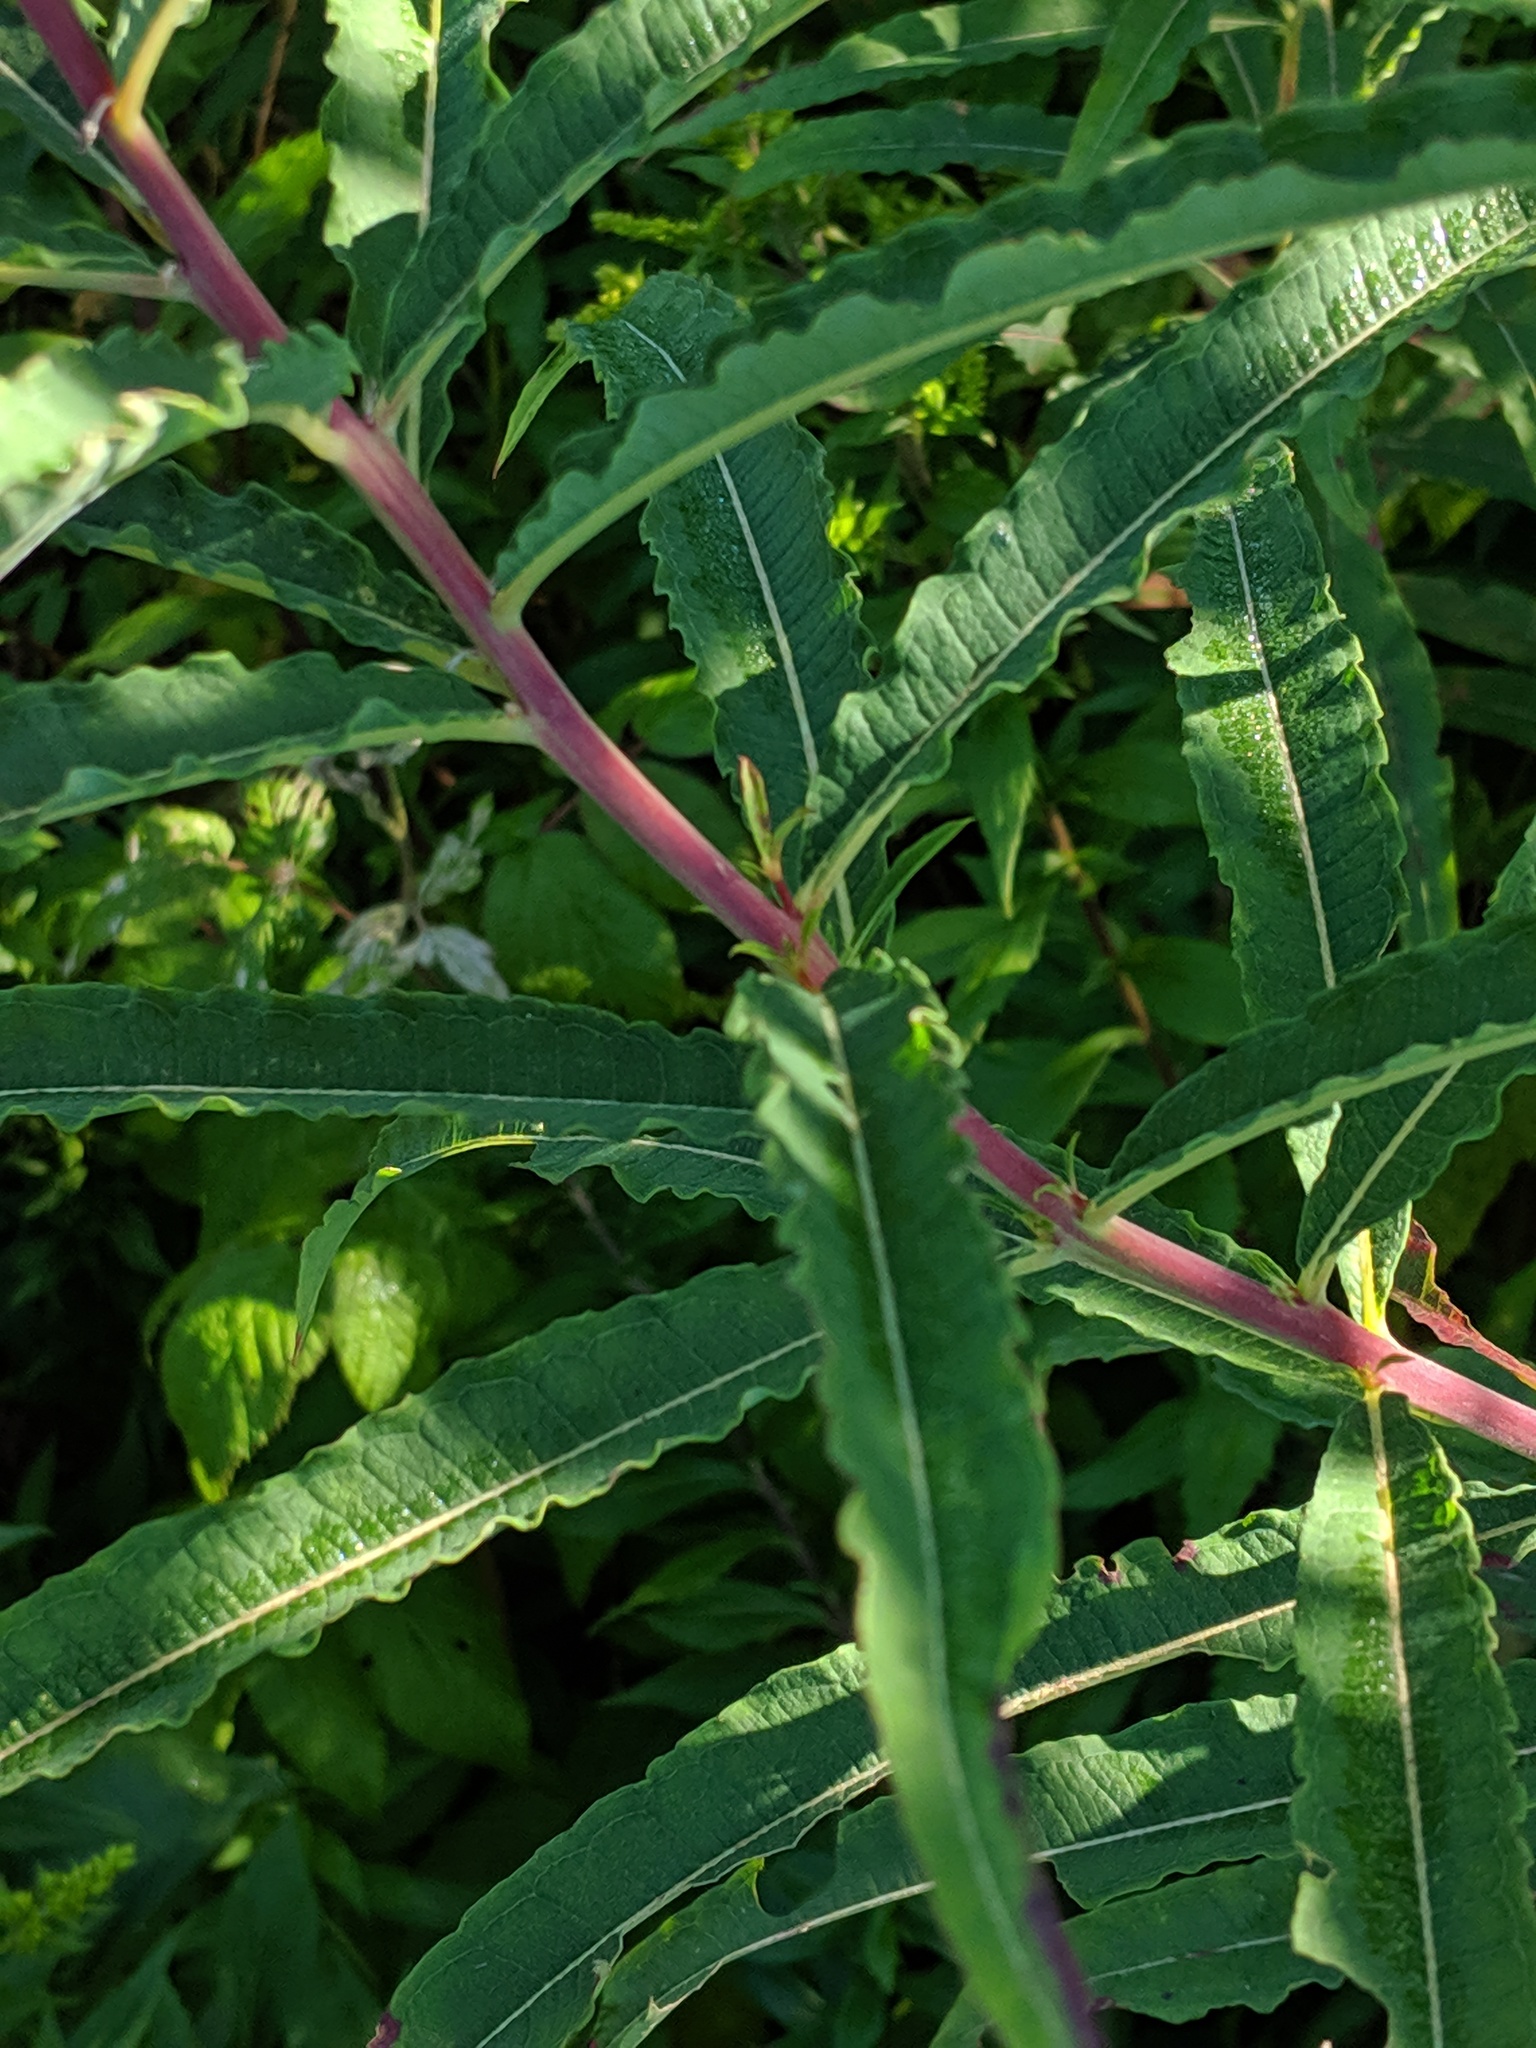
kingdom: Plantae
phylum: Tracheophyta
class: Magnoliopsida
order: Myrtales
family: Onagraceae
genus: Chamaenerion
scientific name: Chamaenerion angustifolium
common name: Fireweed
